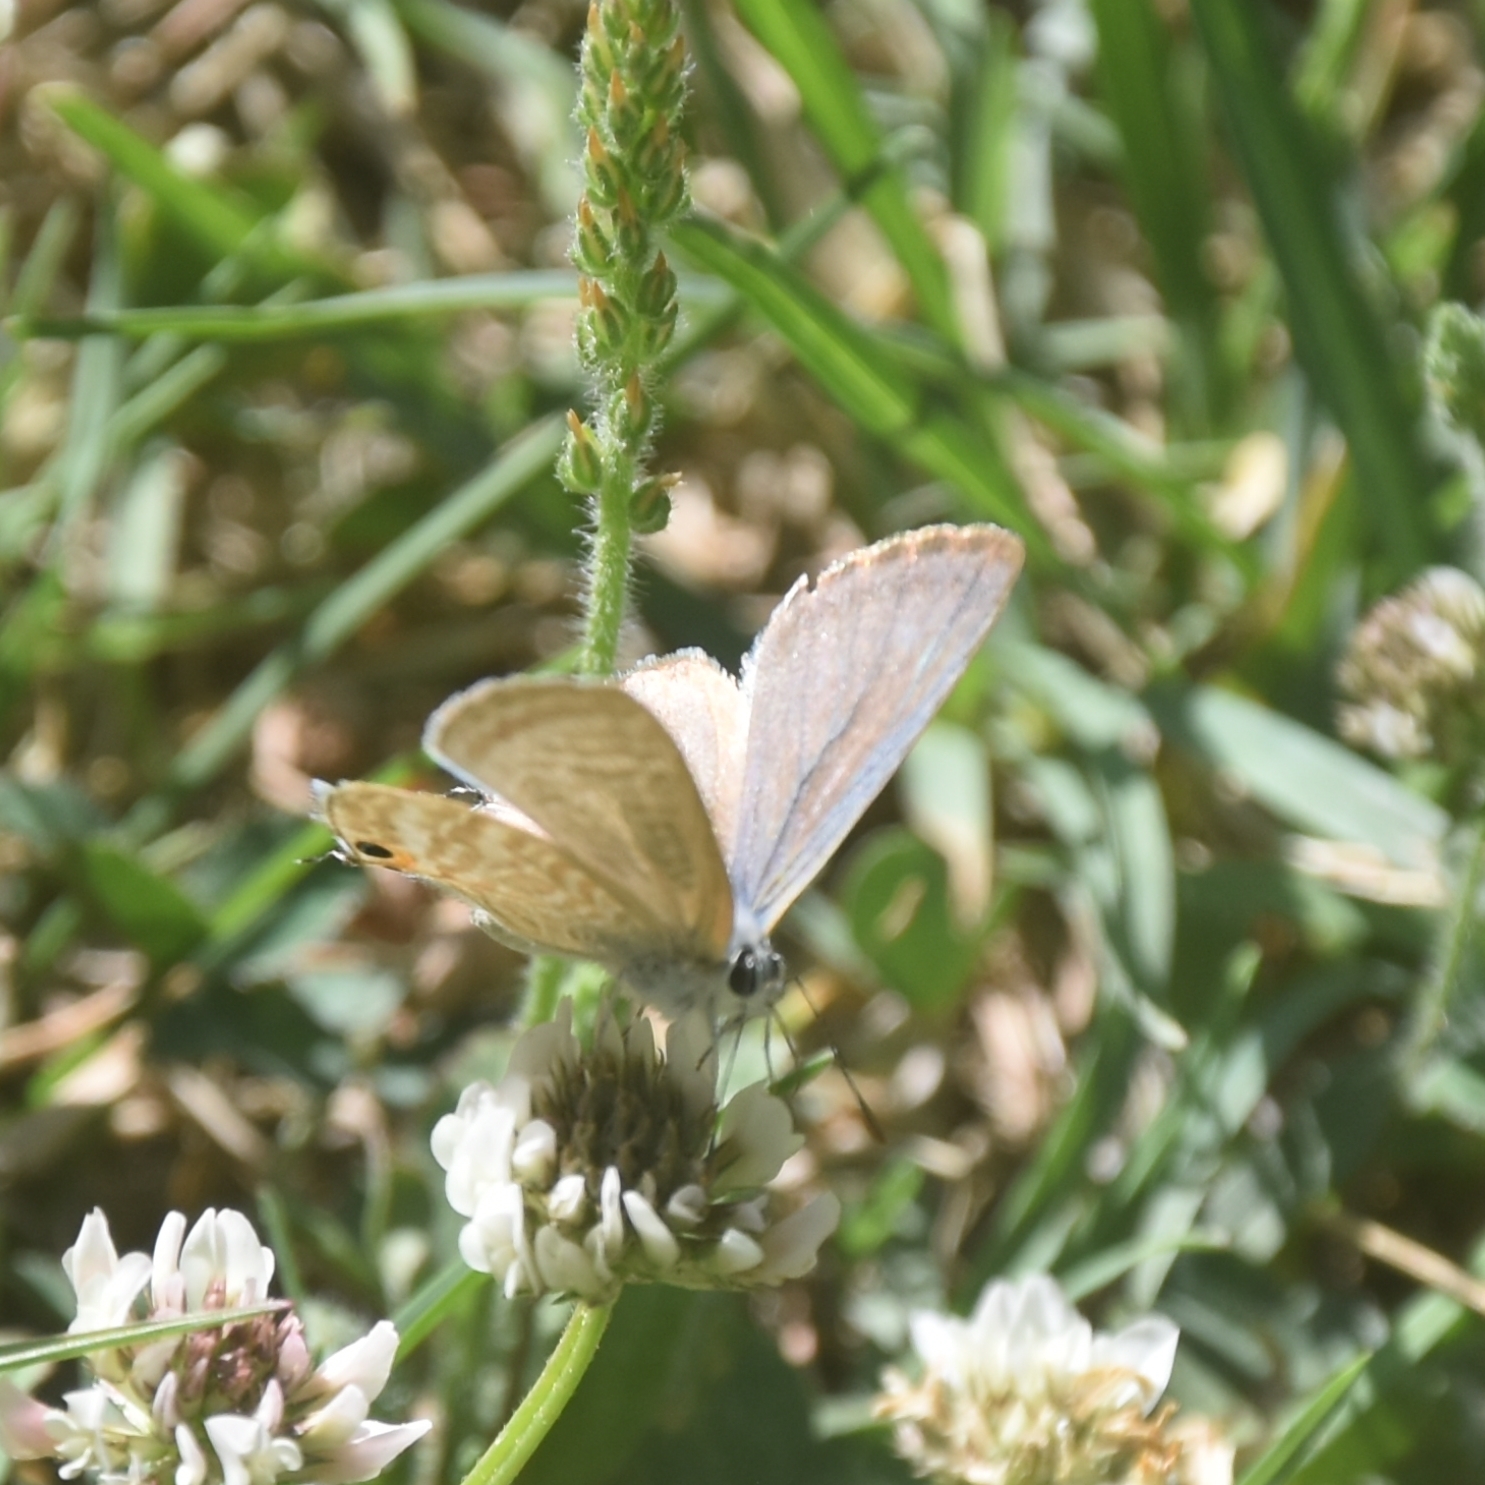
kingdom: Animalia
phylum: Arthropoda
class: Insecta
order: Lepidoptera
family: Lycaenidae
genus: Lampides
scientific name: Lampides boeticus
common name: Long-tailed blue
